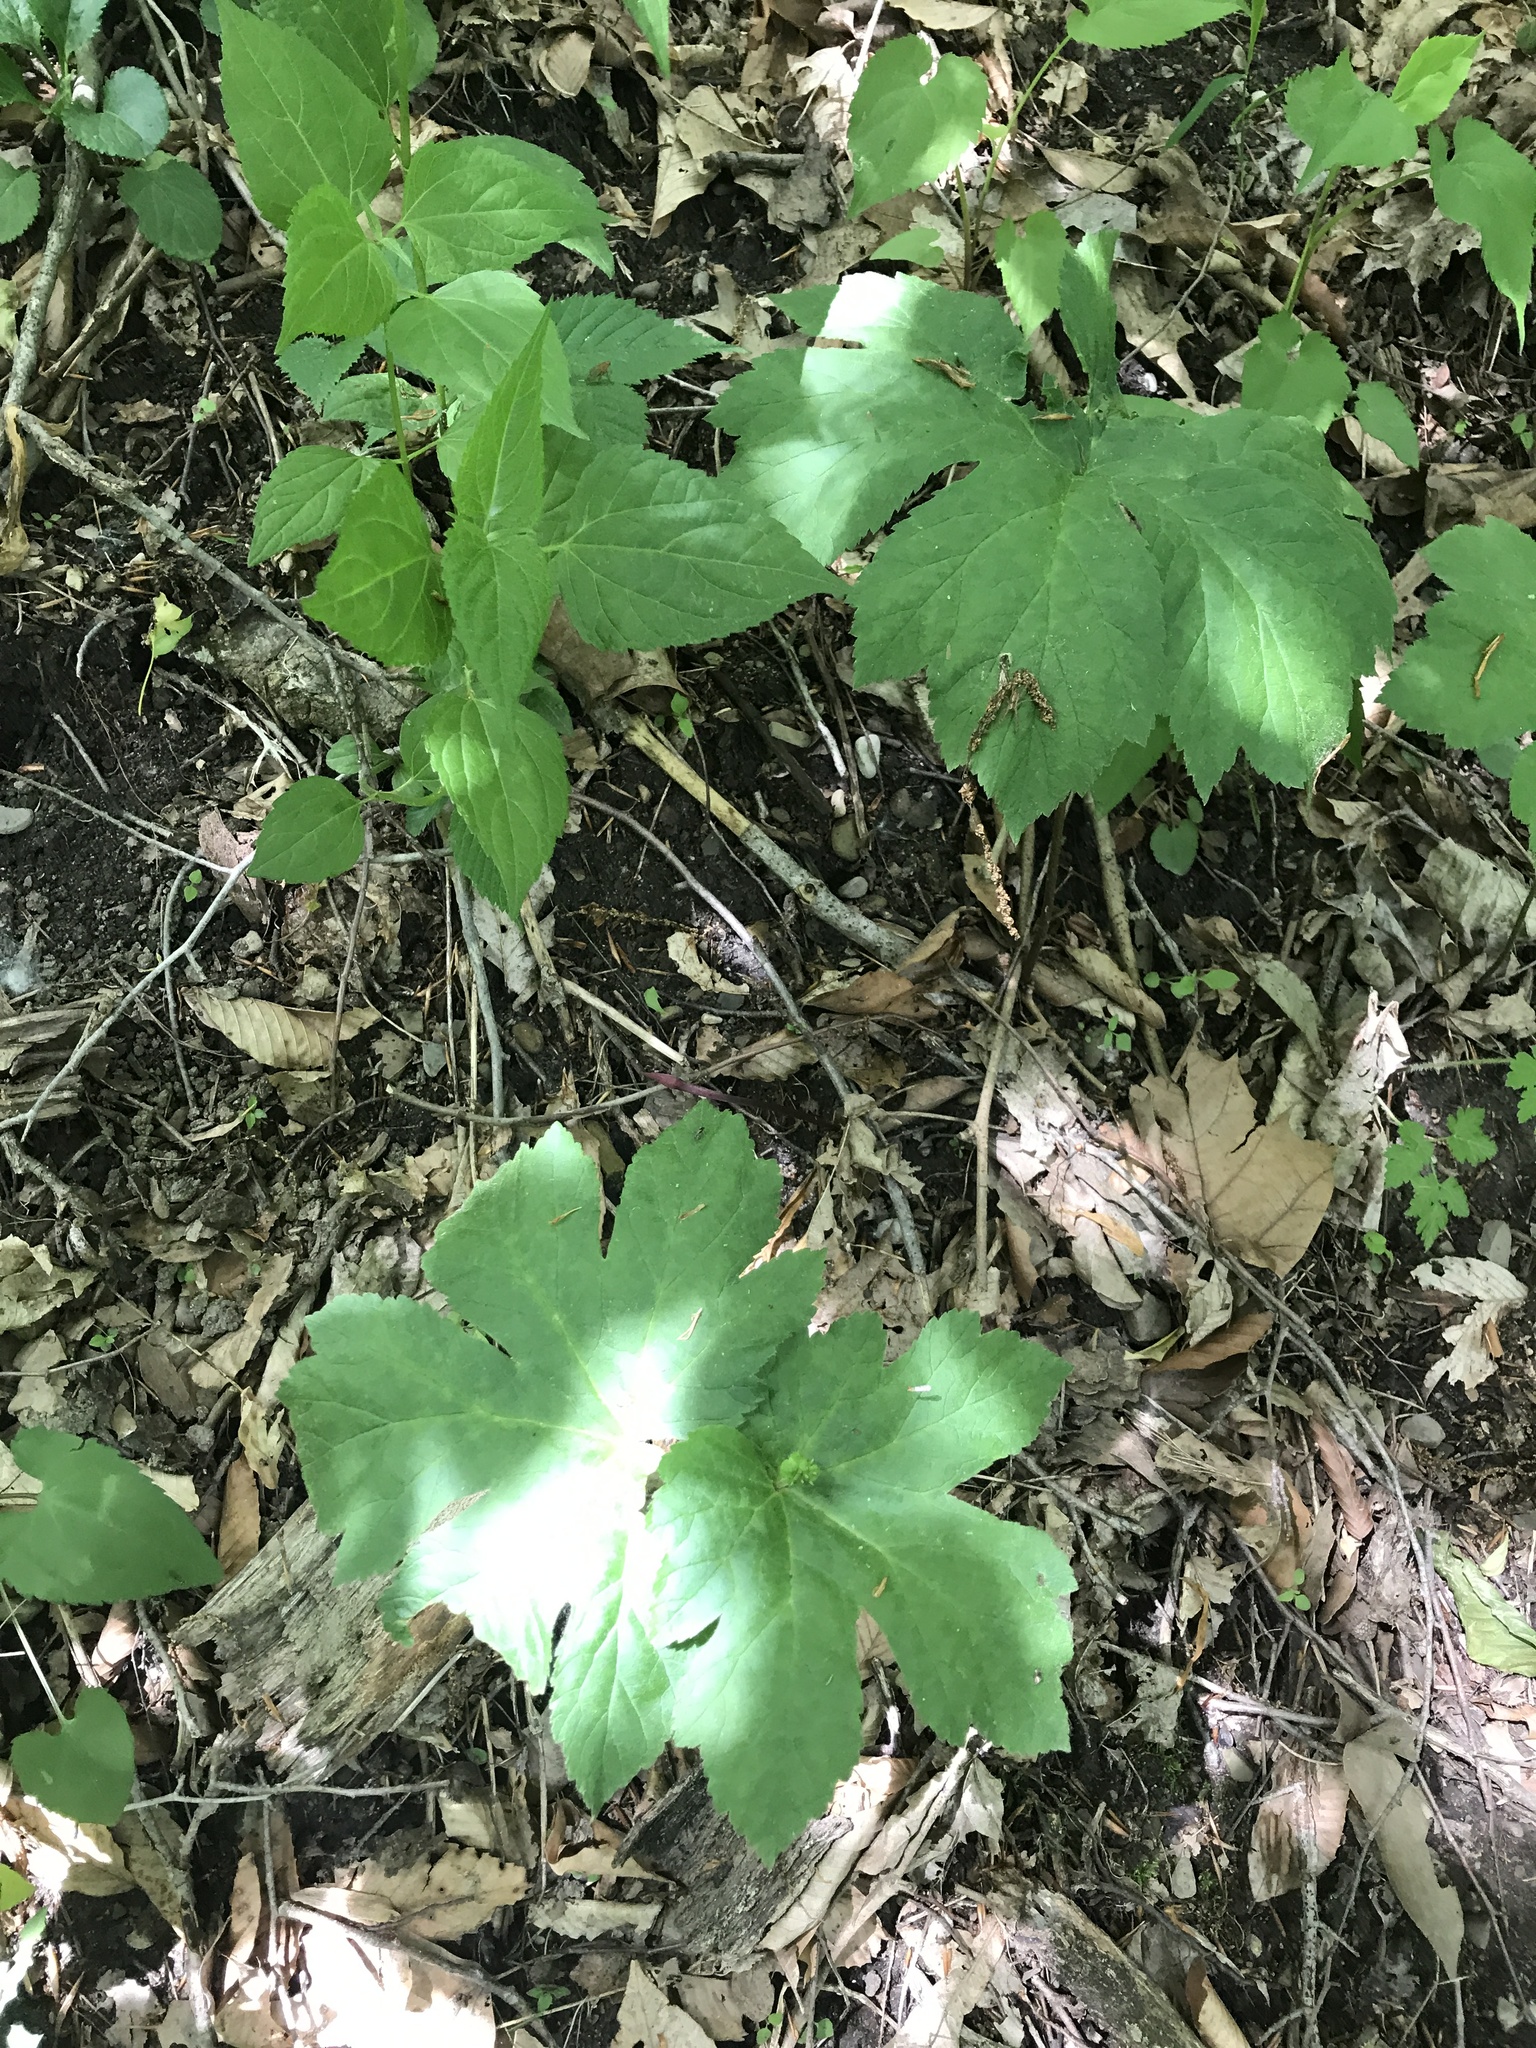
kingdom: Plantae
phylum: Tracheophyta
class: Magnoliopsida
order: Ranunculales
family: Ranunculaceae
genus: Hydrastis
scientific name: Hydrastis canadensis
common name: Goldenseal
